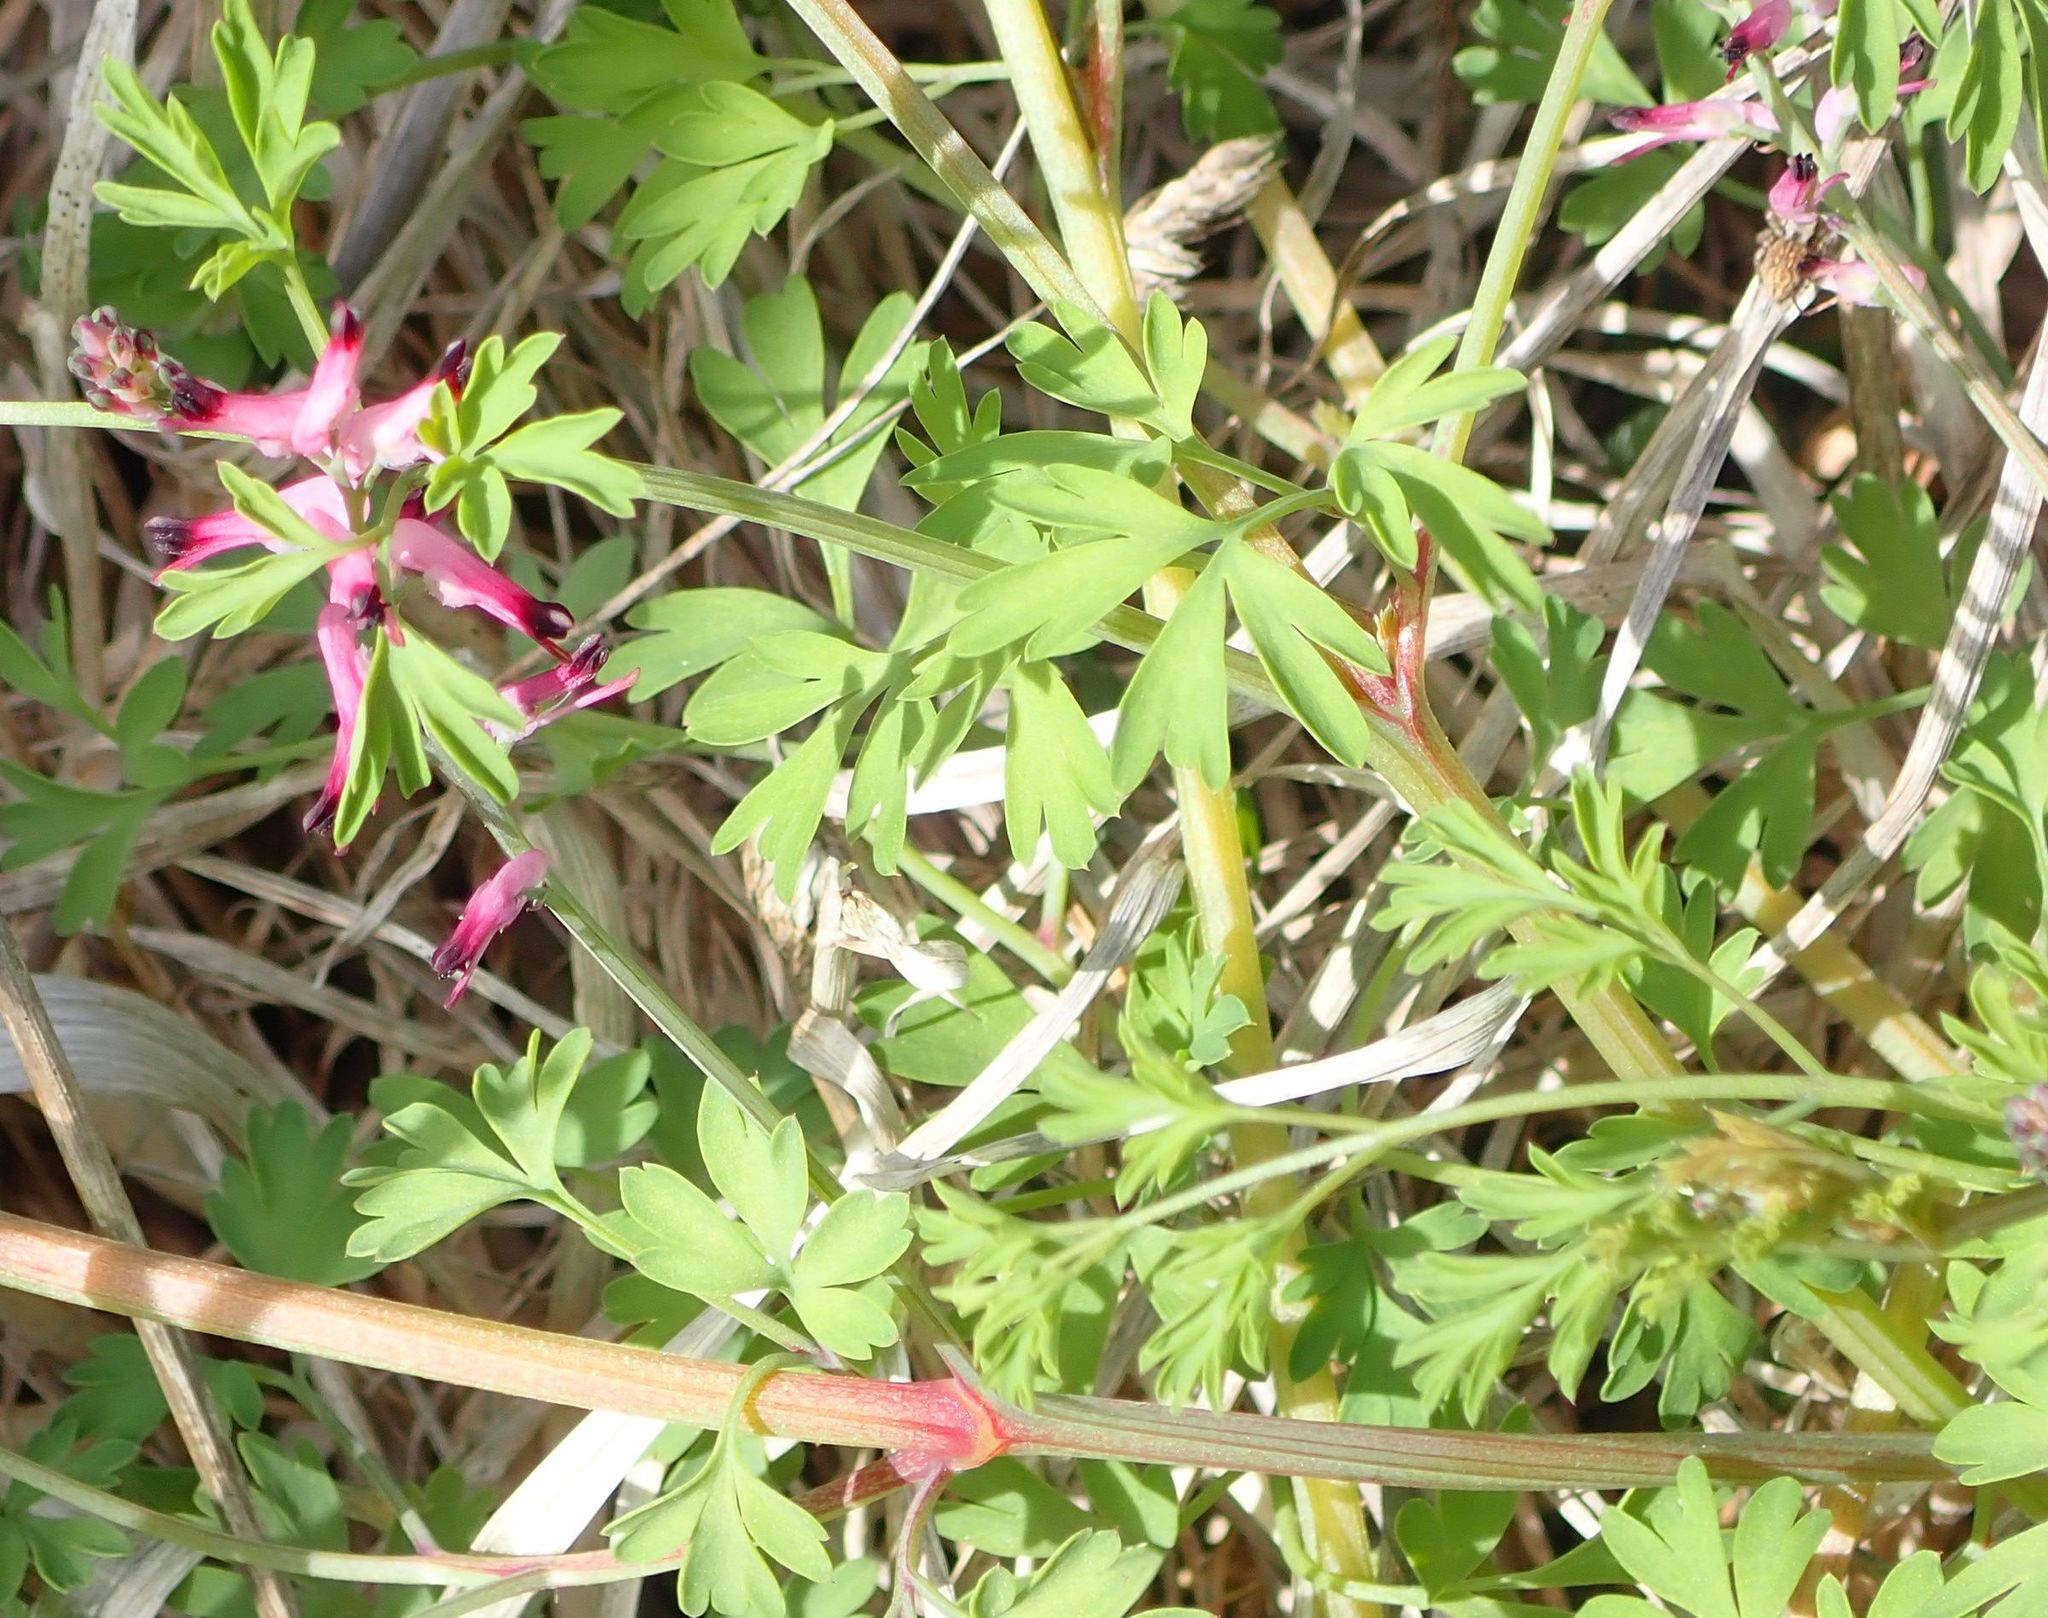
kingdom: Plantae
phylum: Tracheophyta
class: Magnoliopsida
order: Ranunculales
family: Papaveraceae
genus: Fumaria
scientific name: Fumaria muralis
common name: Common ramping-fumitory
